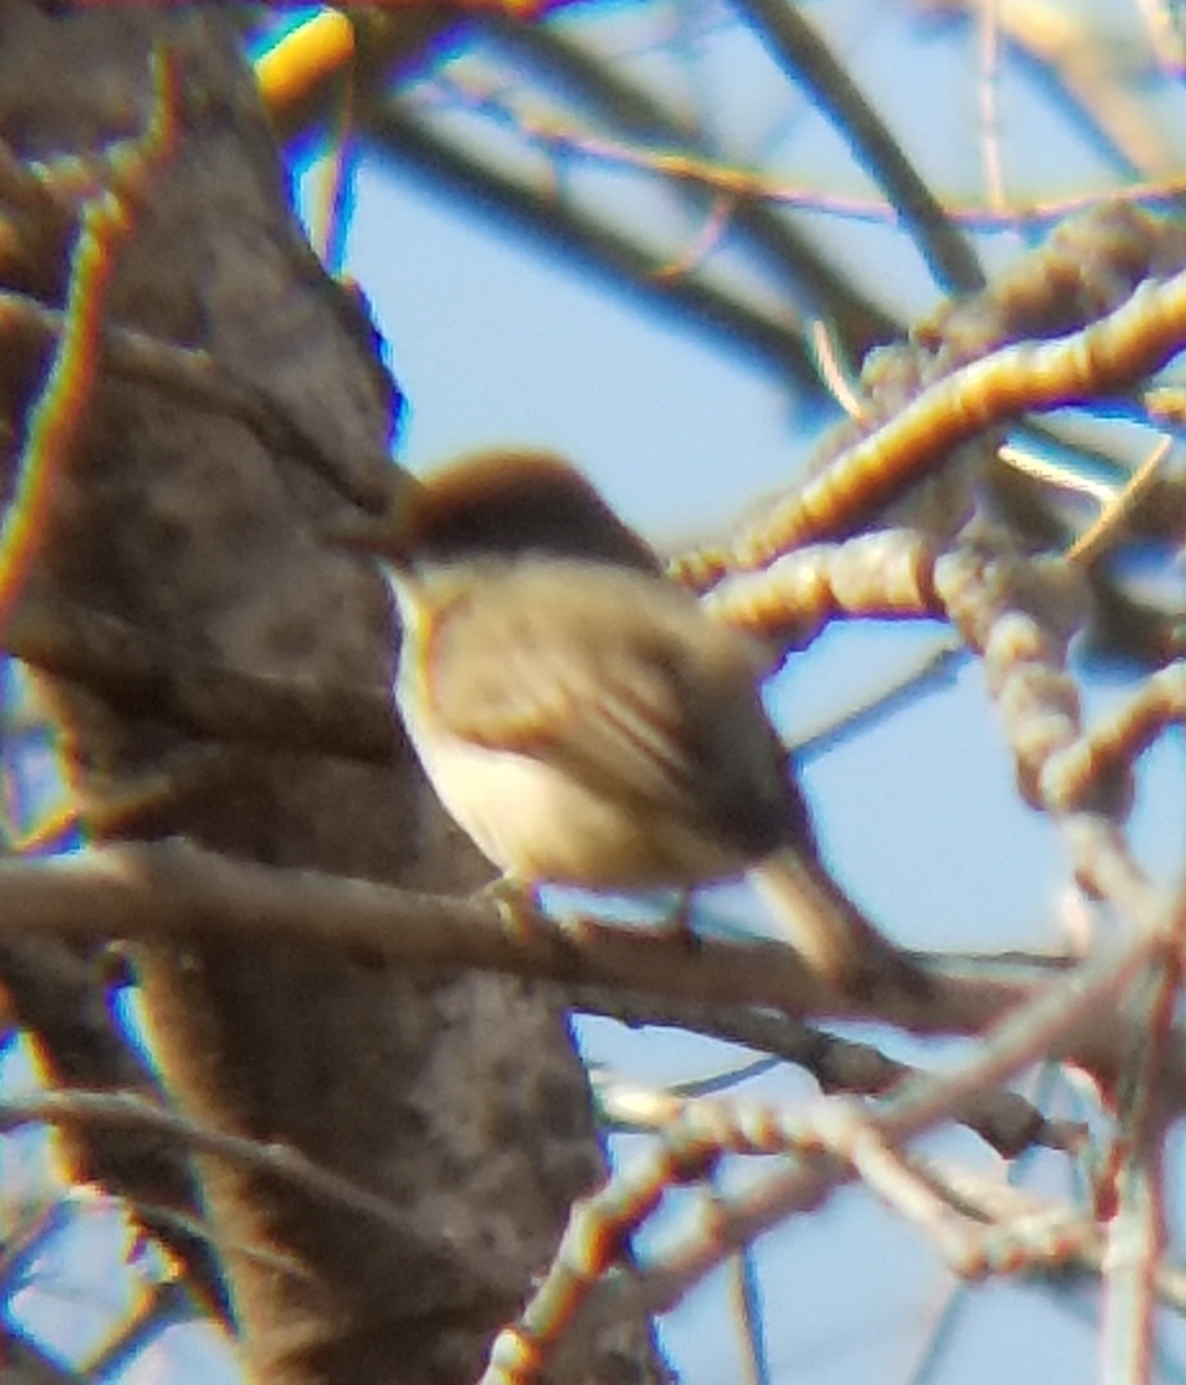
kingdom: Animalia
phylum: Chordata
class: Aves
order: Passeriformes
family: Tyrannidae
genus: Sayornis
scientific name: Sayornis phoebe
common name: Eastern phoebe
